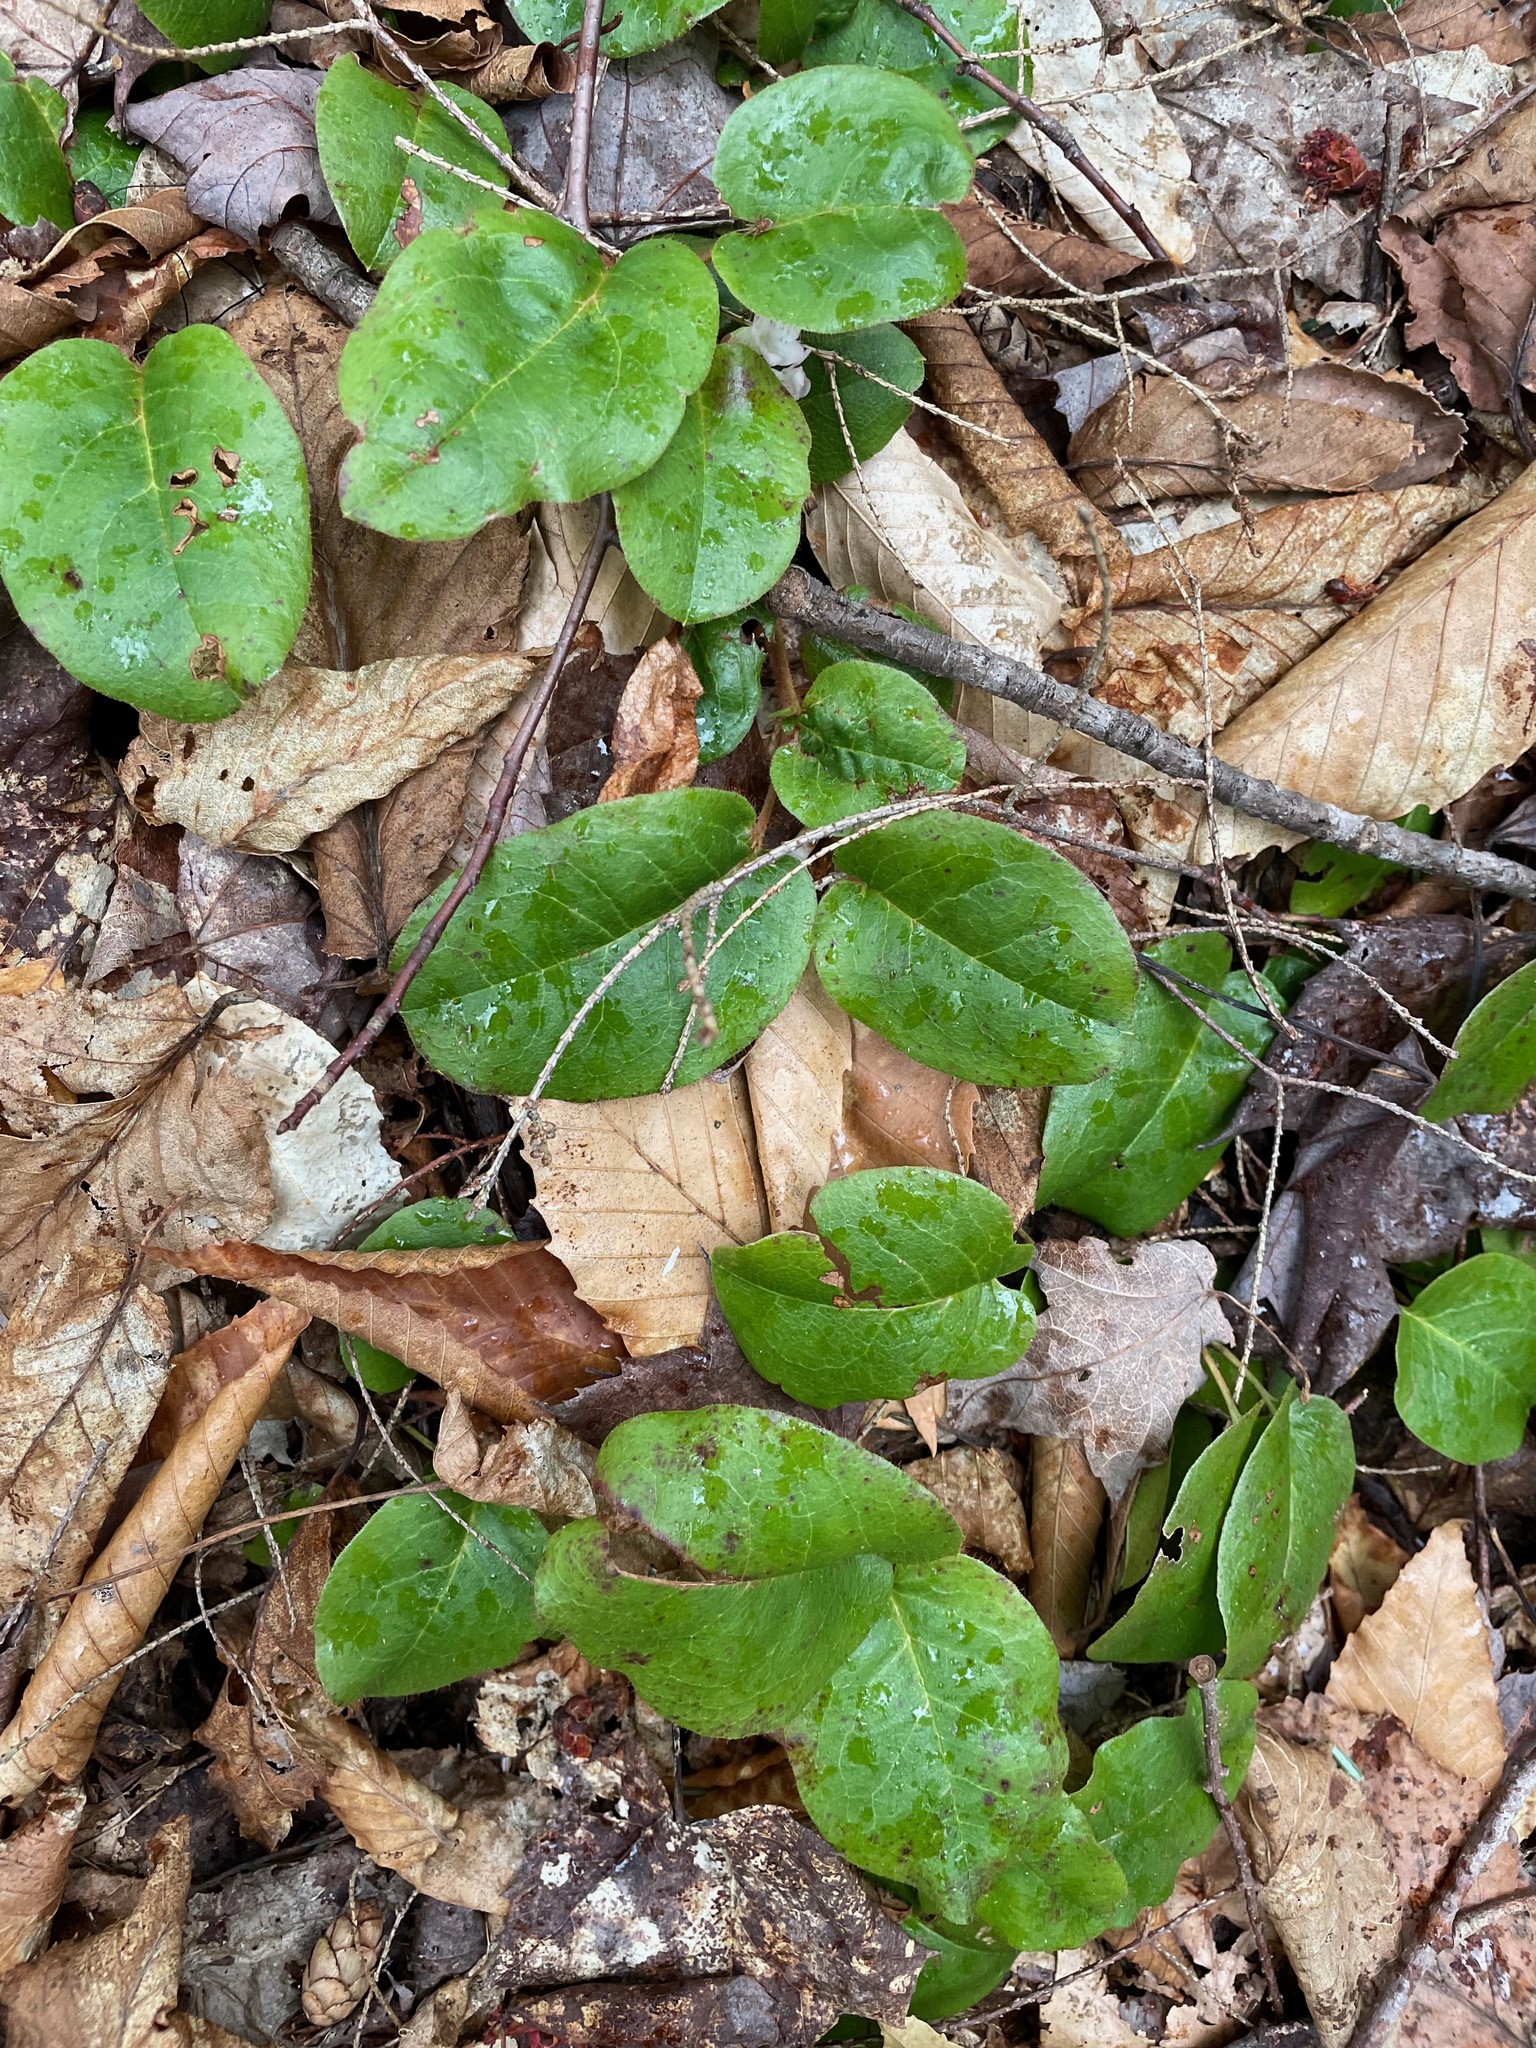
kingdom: Plantae
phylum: Tracheophyta
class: Magnoliopsida
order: Ericales
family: Ericaceae
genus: Epigaea
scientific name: Epigaea repens
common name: Gravelroot
